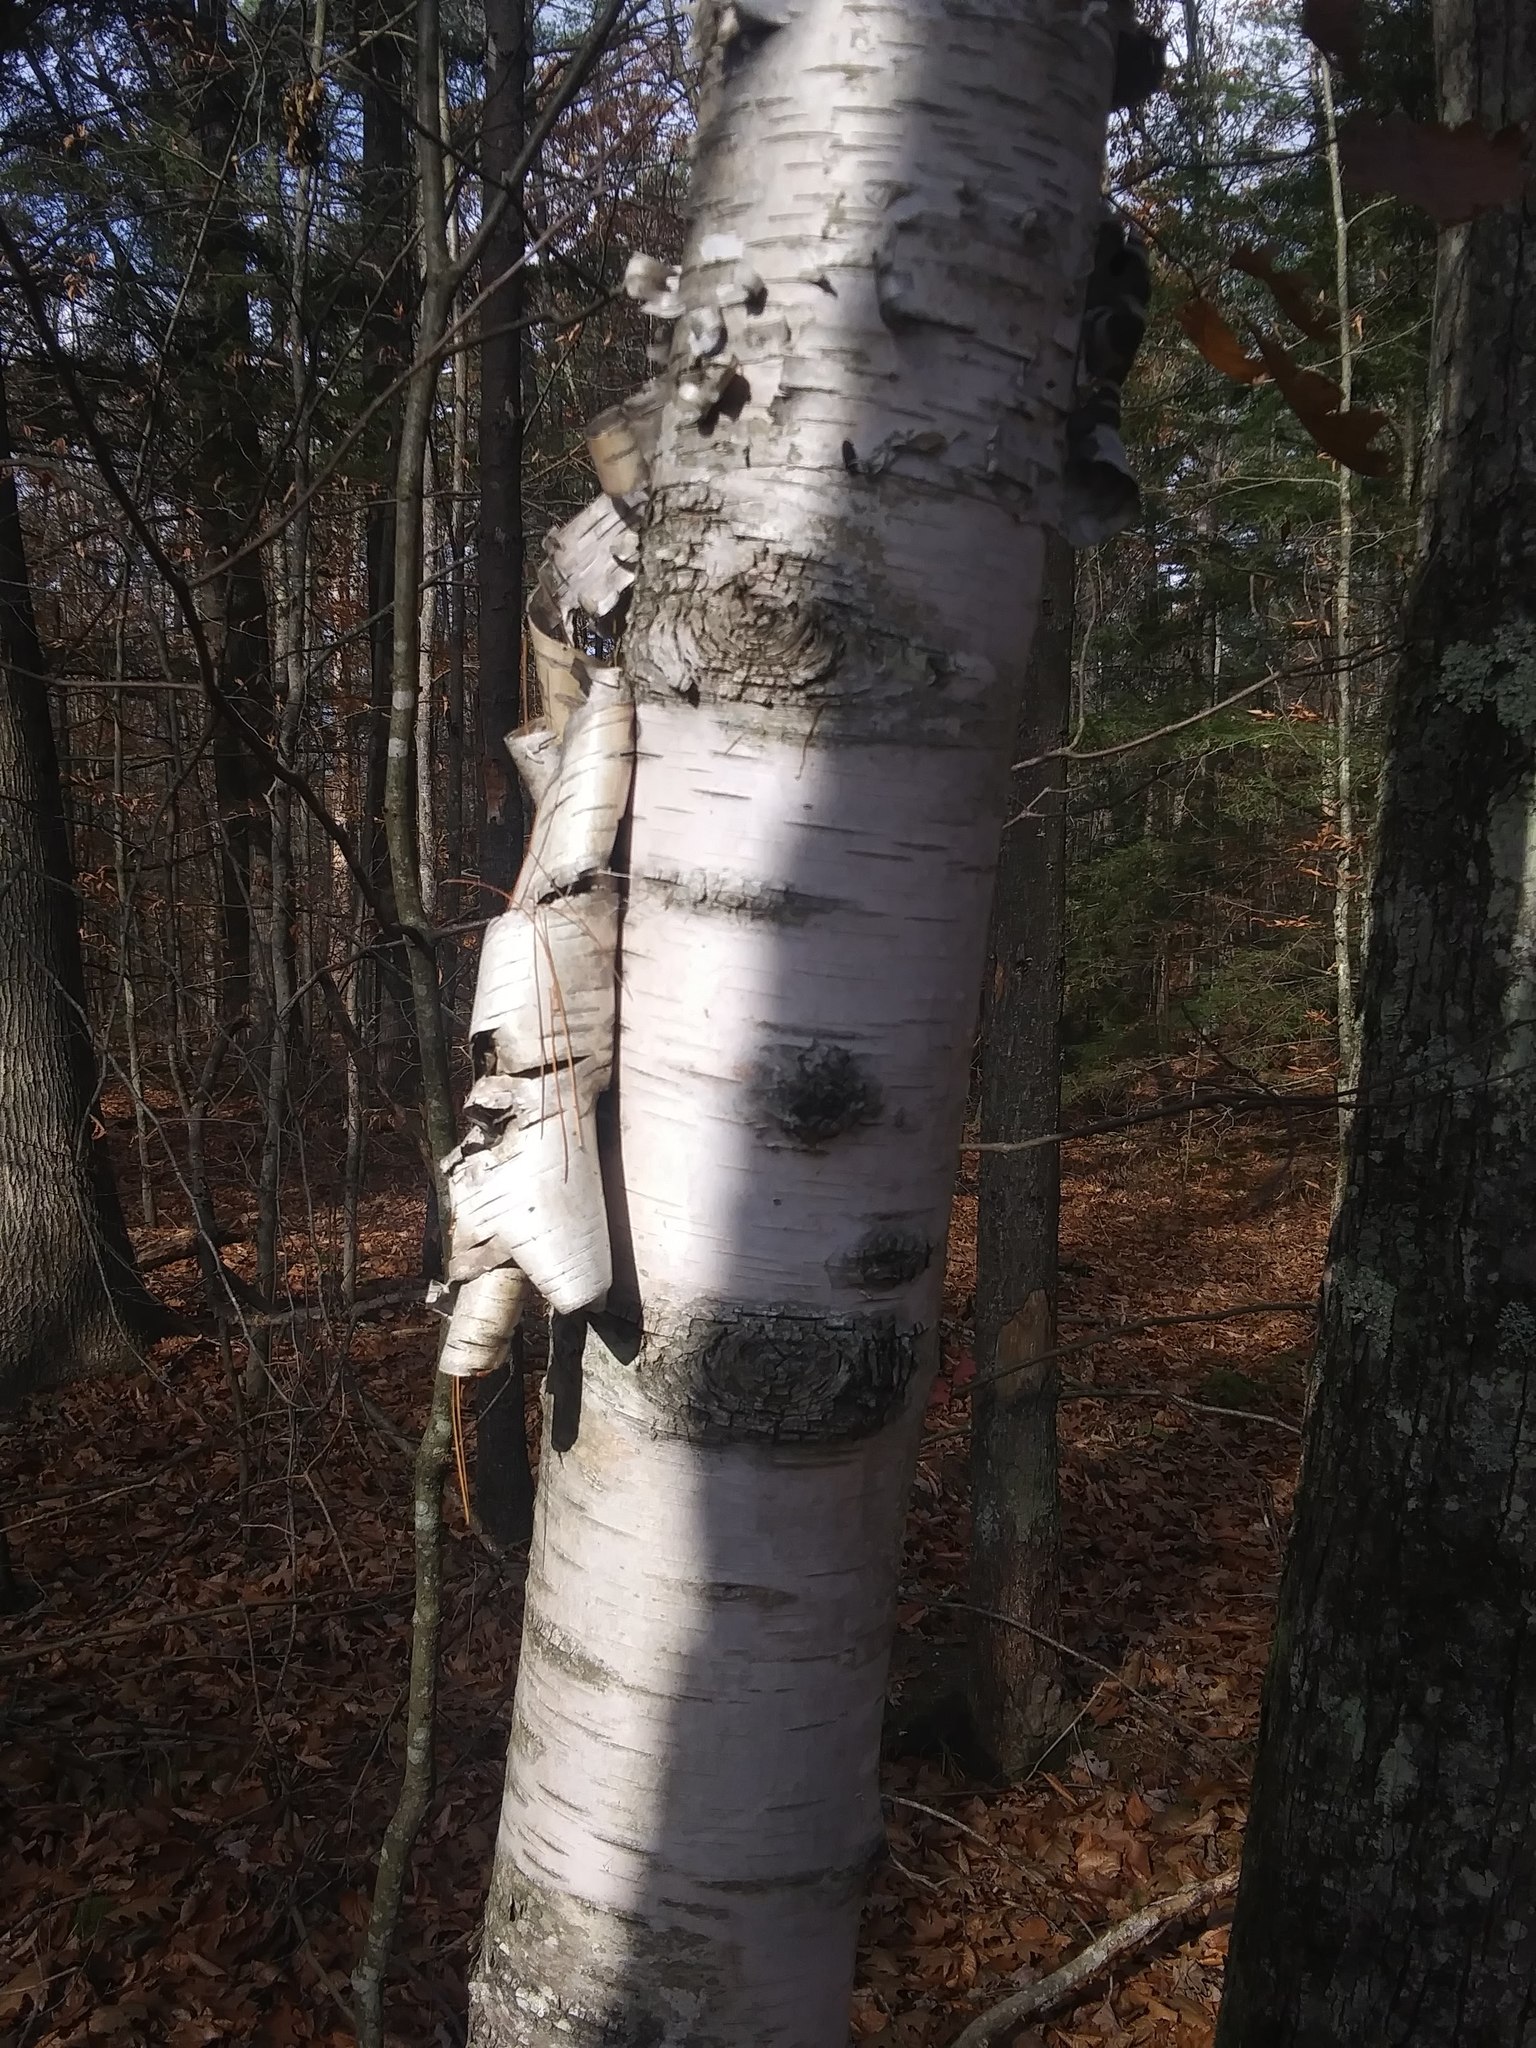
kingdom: Plantae
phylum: Tracheophyta
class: Magnoliopsida
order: Fagales
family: Betulaceae
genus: Betula
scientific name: Betula papyrifera
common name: Paper birch
